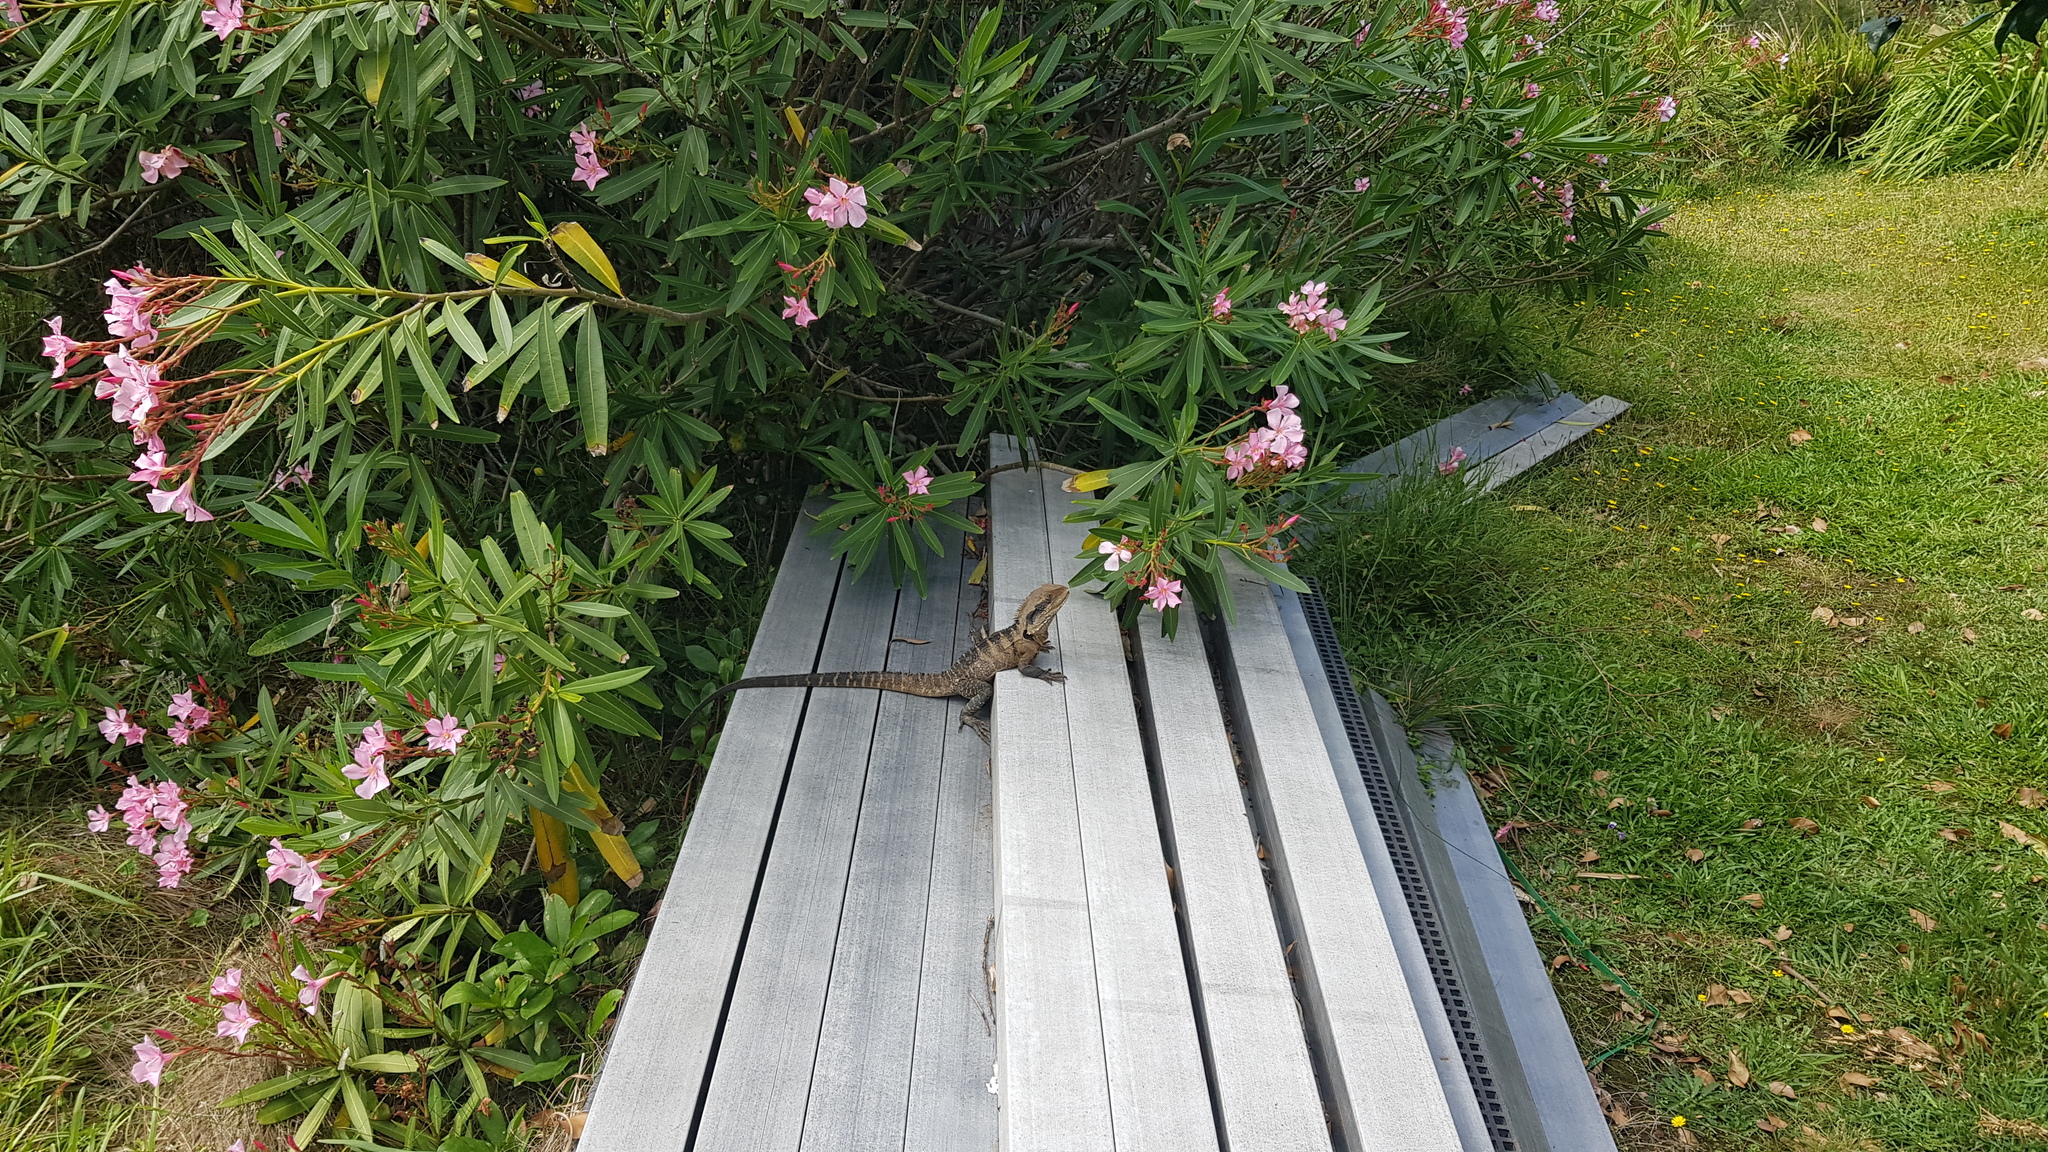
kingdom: Animalia
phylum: Chordata
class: Squamata
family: Agamidae
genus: Intellagama
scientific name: Intellagama lesueurii
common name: Eastern water dragon
